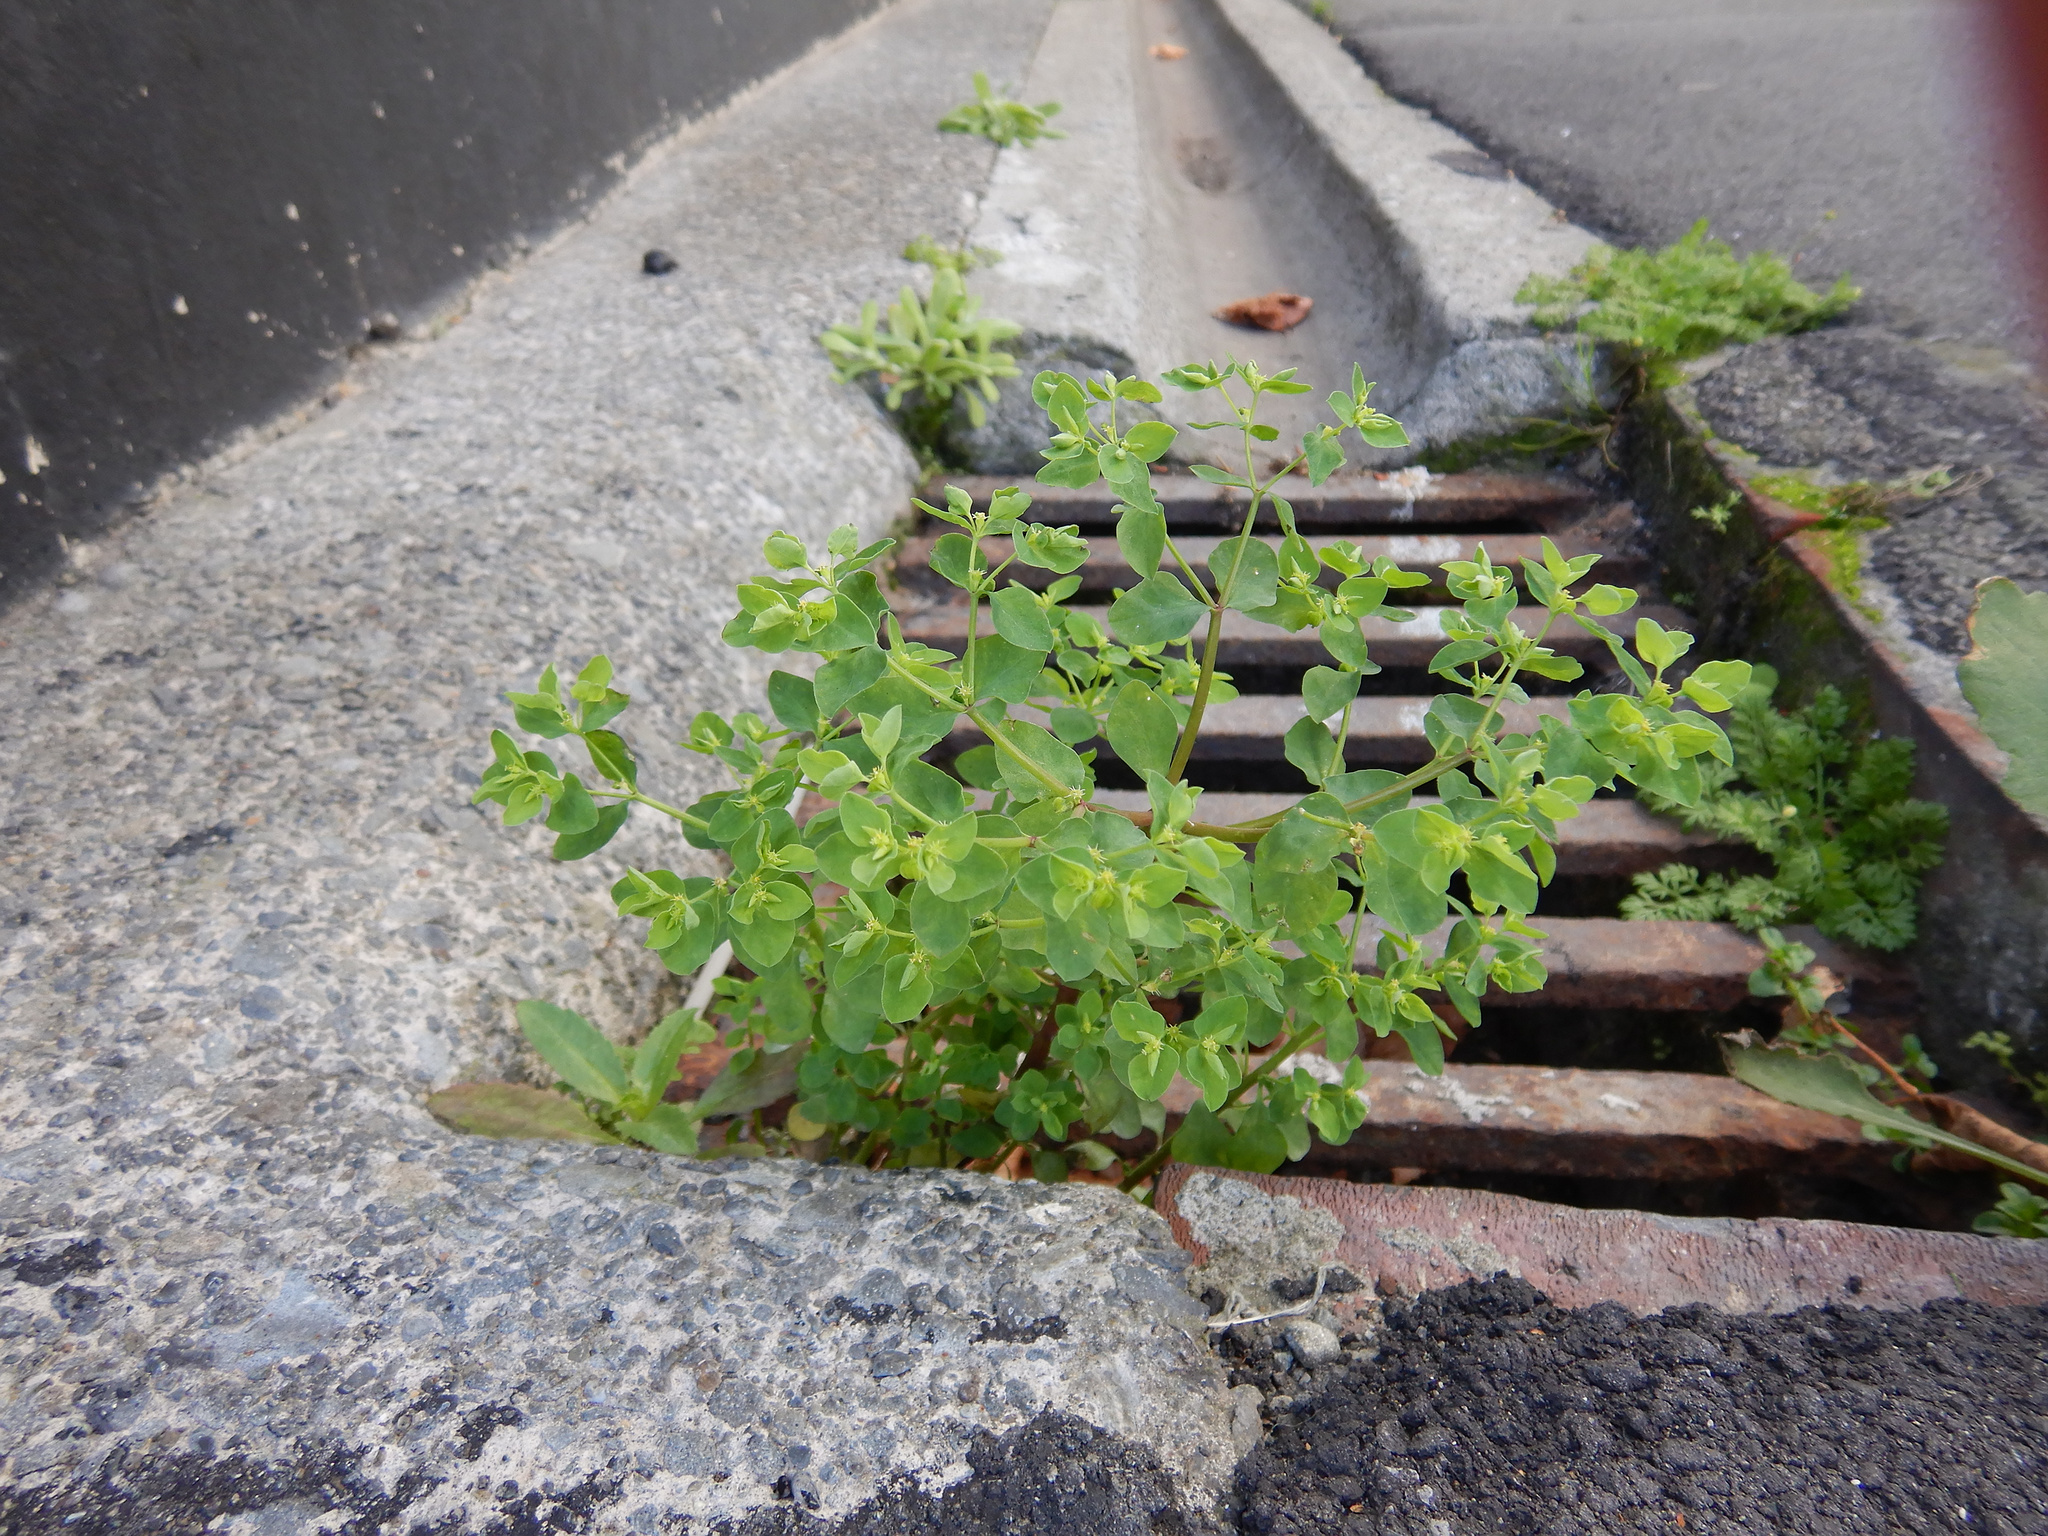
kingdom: Plantae
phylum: Tracheophyta
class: Magnoliopsida
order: Malpighiales
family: Euphorbiaceae
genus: Euphorbia
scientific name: Euphorbia peplus
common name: Petty spurge
